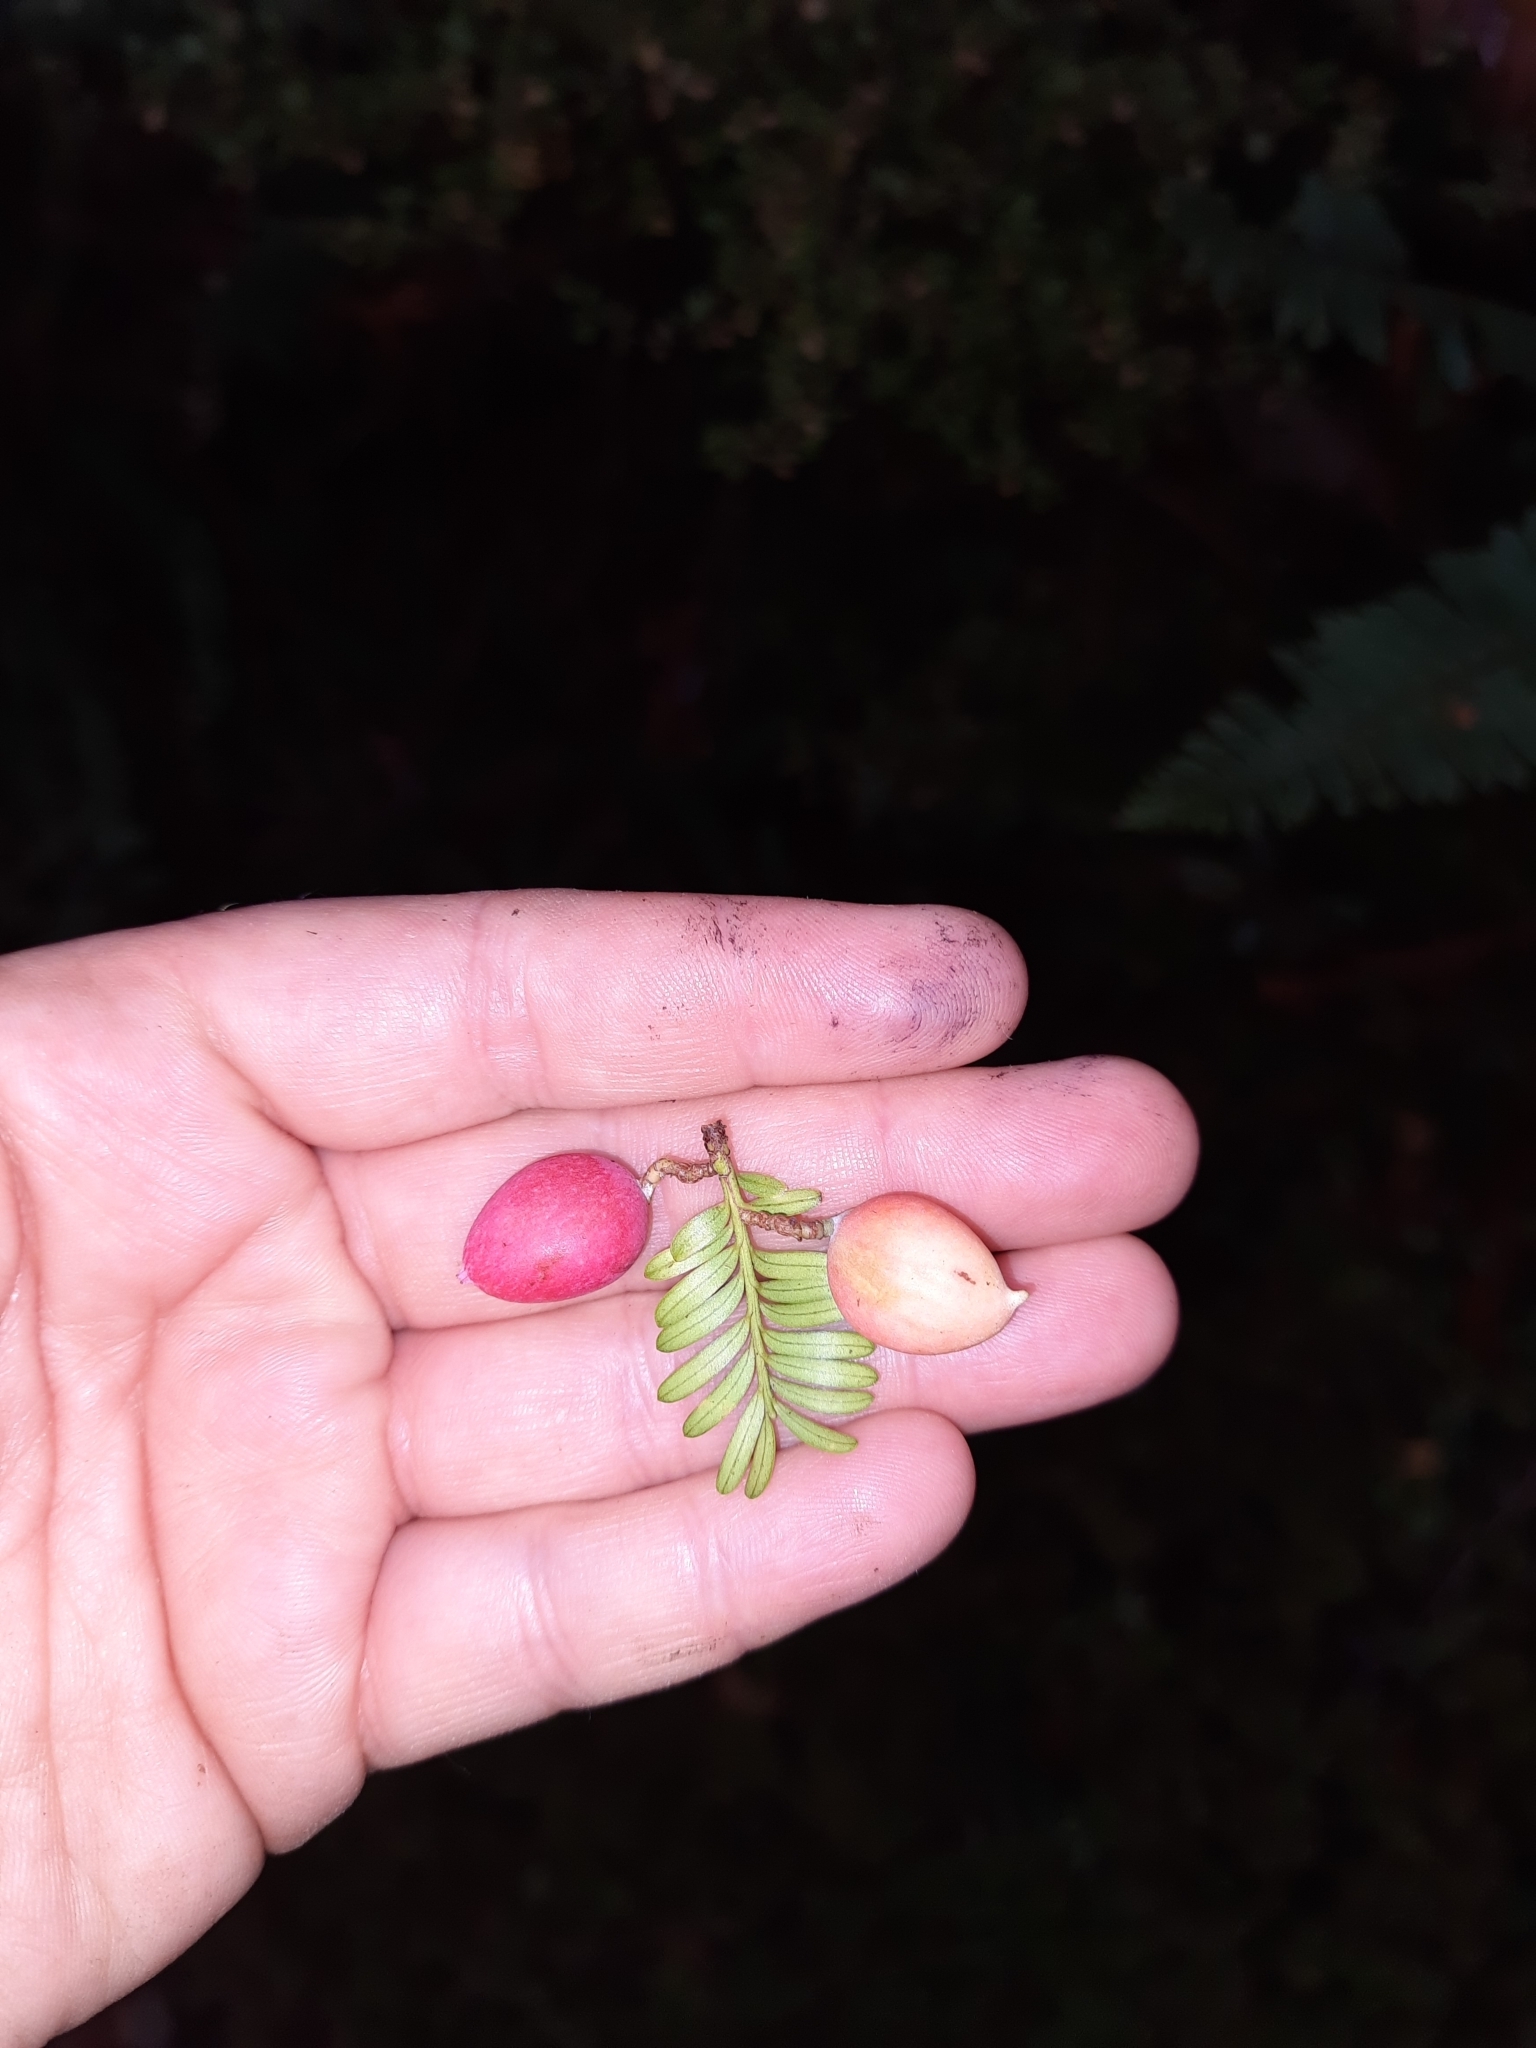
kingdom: Plantae
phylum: Tracheophyta
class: Pinopsida
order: Pinales
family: Podocarpaceae
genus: Prumnopitys
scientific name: Prumnopitys ferruginea
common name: Brown pine
